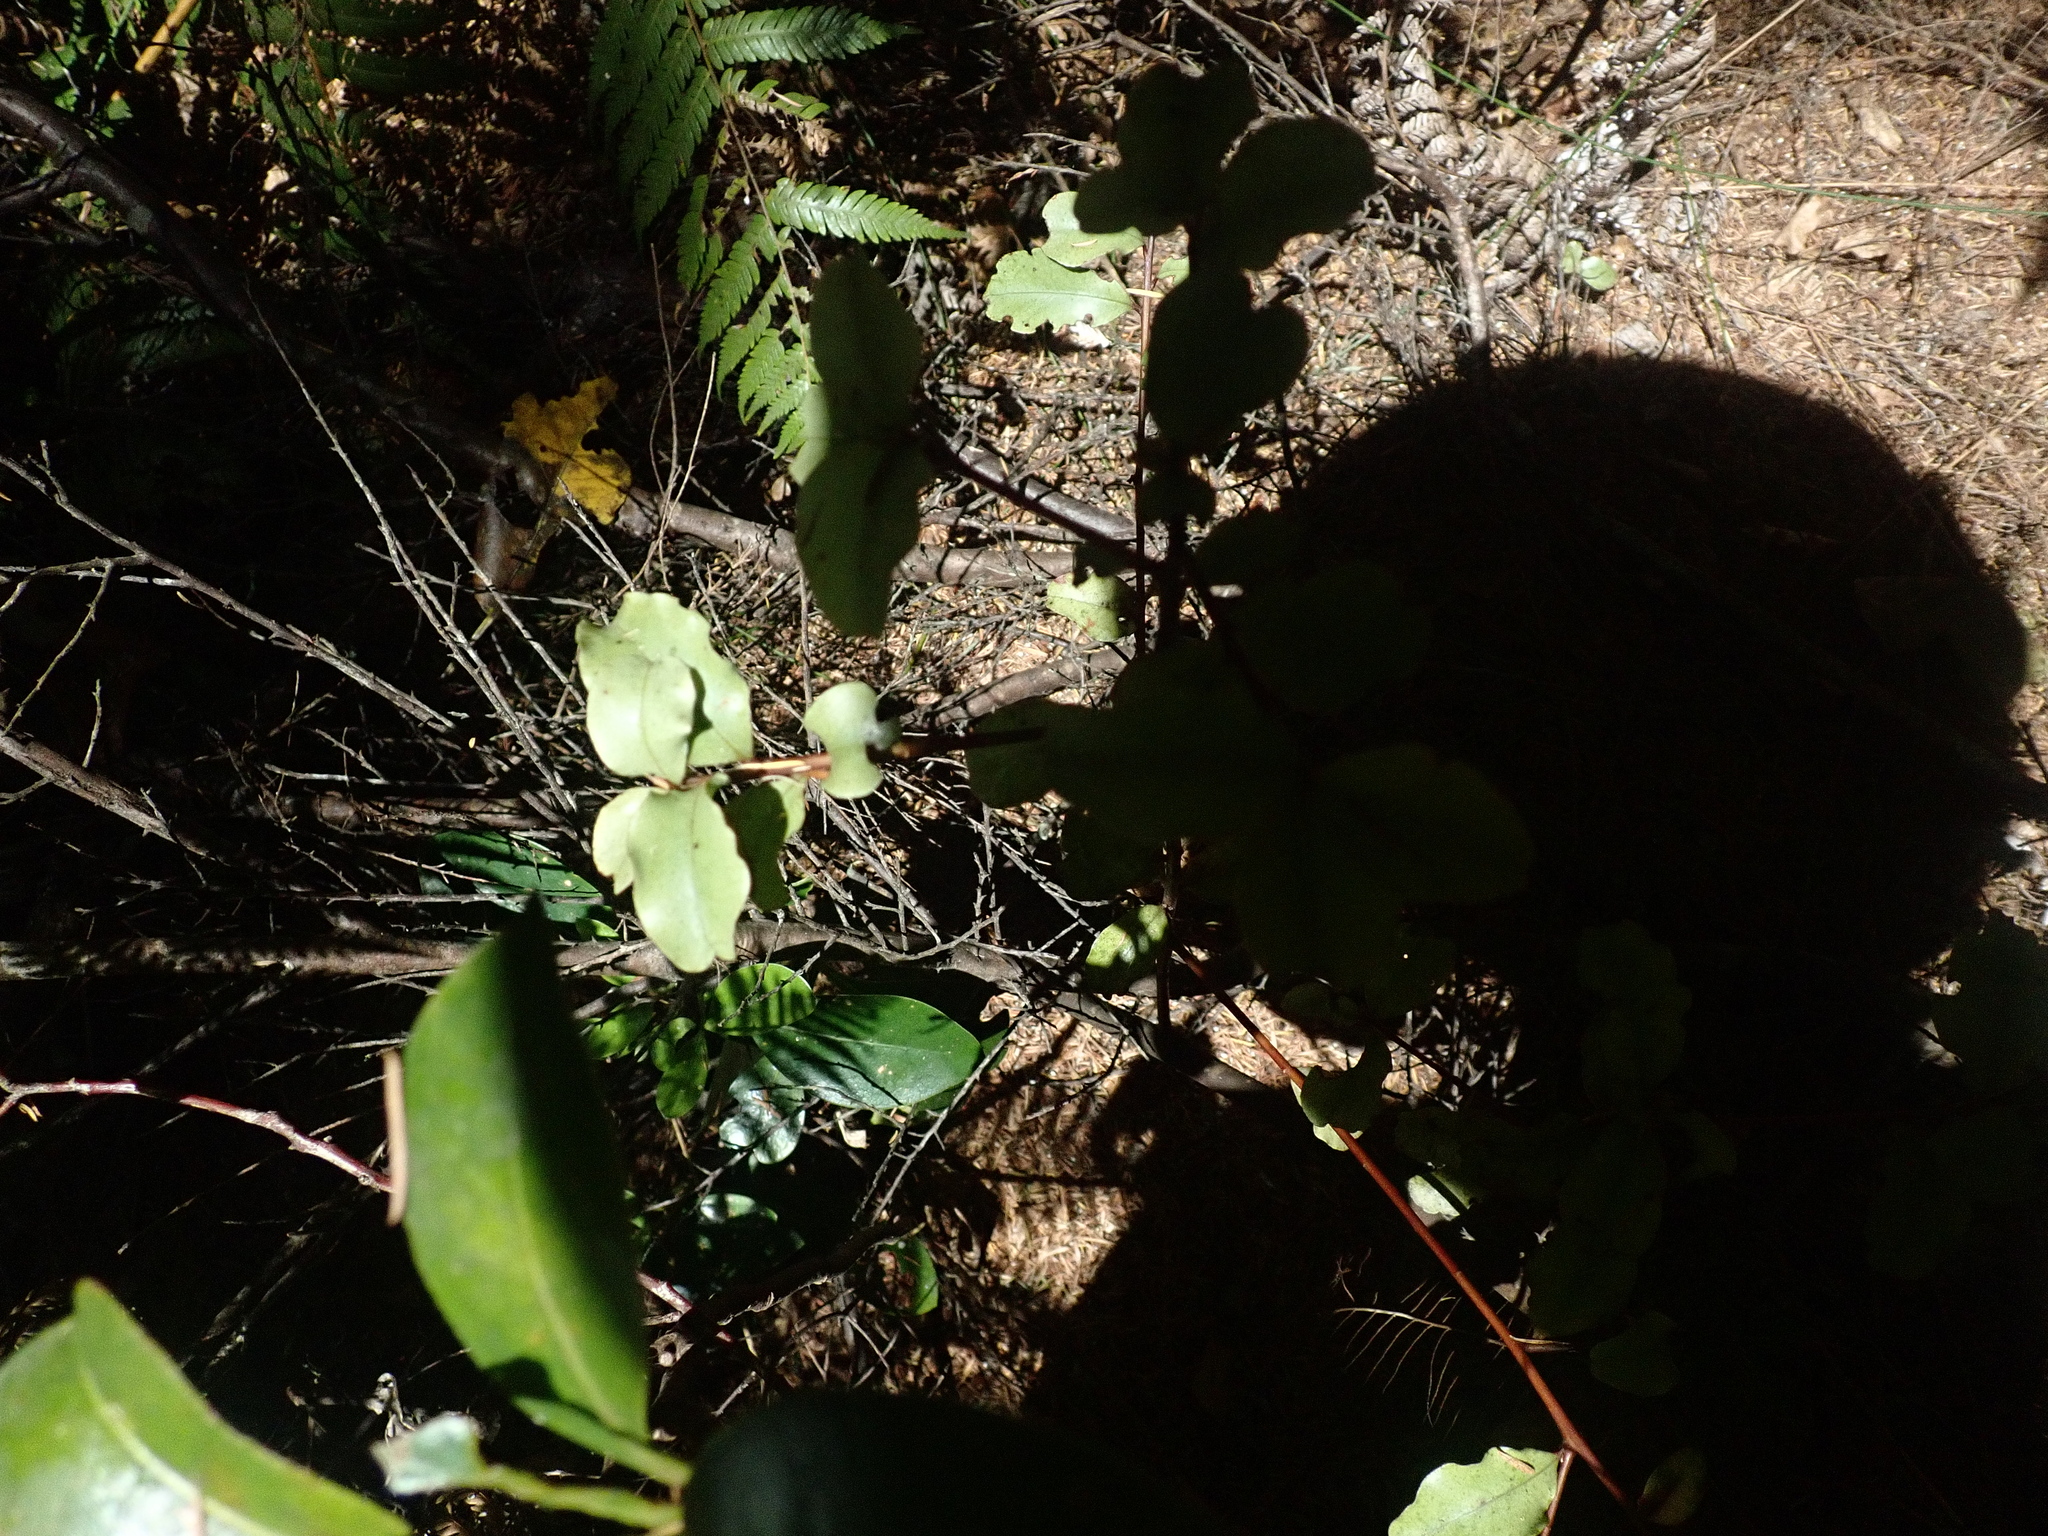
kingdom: Plantae
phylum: Tracheophyta
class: Magnoliopsida
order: Ericales
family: Primulaceae
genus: Myrsine
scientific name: Myrsine australis
